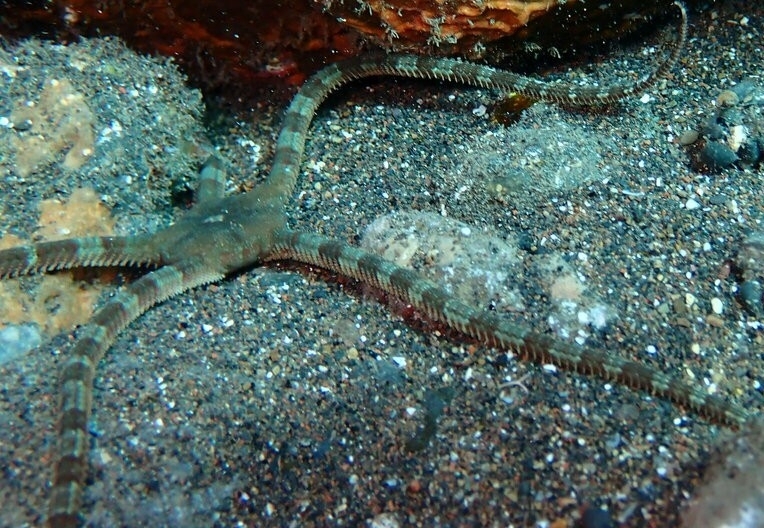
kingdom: Animalia
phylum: Echinodermata
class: Ophiuroidea
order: Ophiacanthida
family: Ophiodermatidae
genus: Ophioderma
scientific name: Ophioderma longicaudum
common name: Smooth brittle-star
